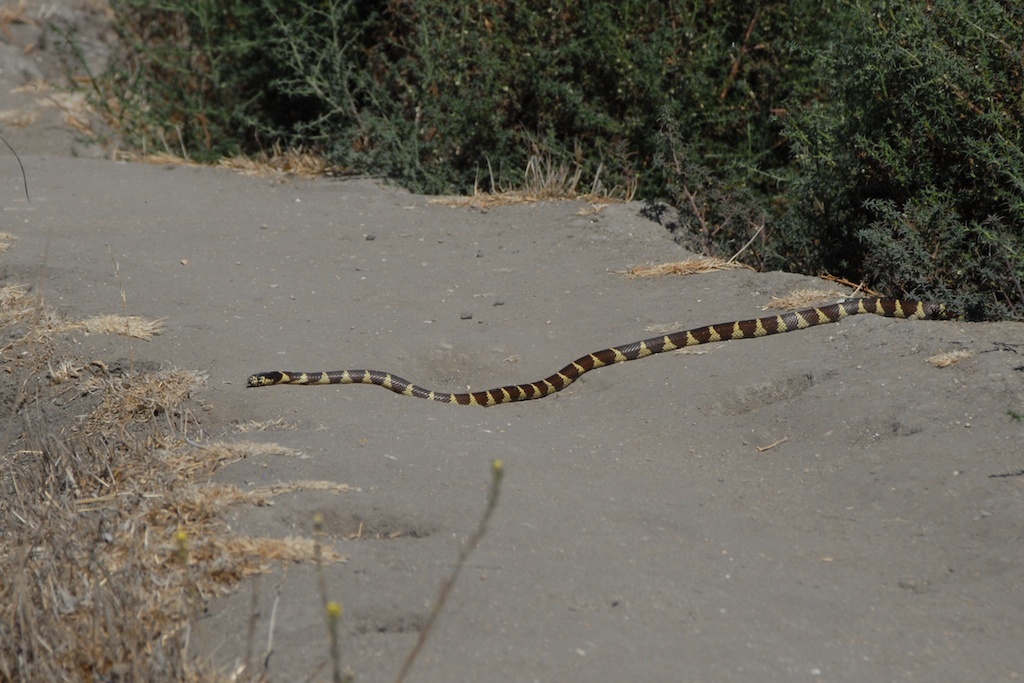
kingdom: Animalia
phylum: Chordata
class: Squamata
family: Colubridae
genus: Lampropeltis
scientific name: Lampropeltis californiae
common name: California kingsnake
